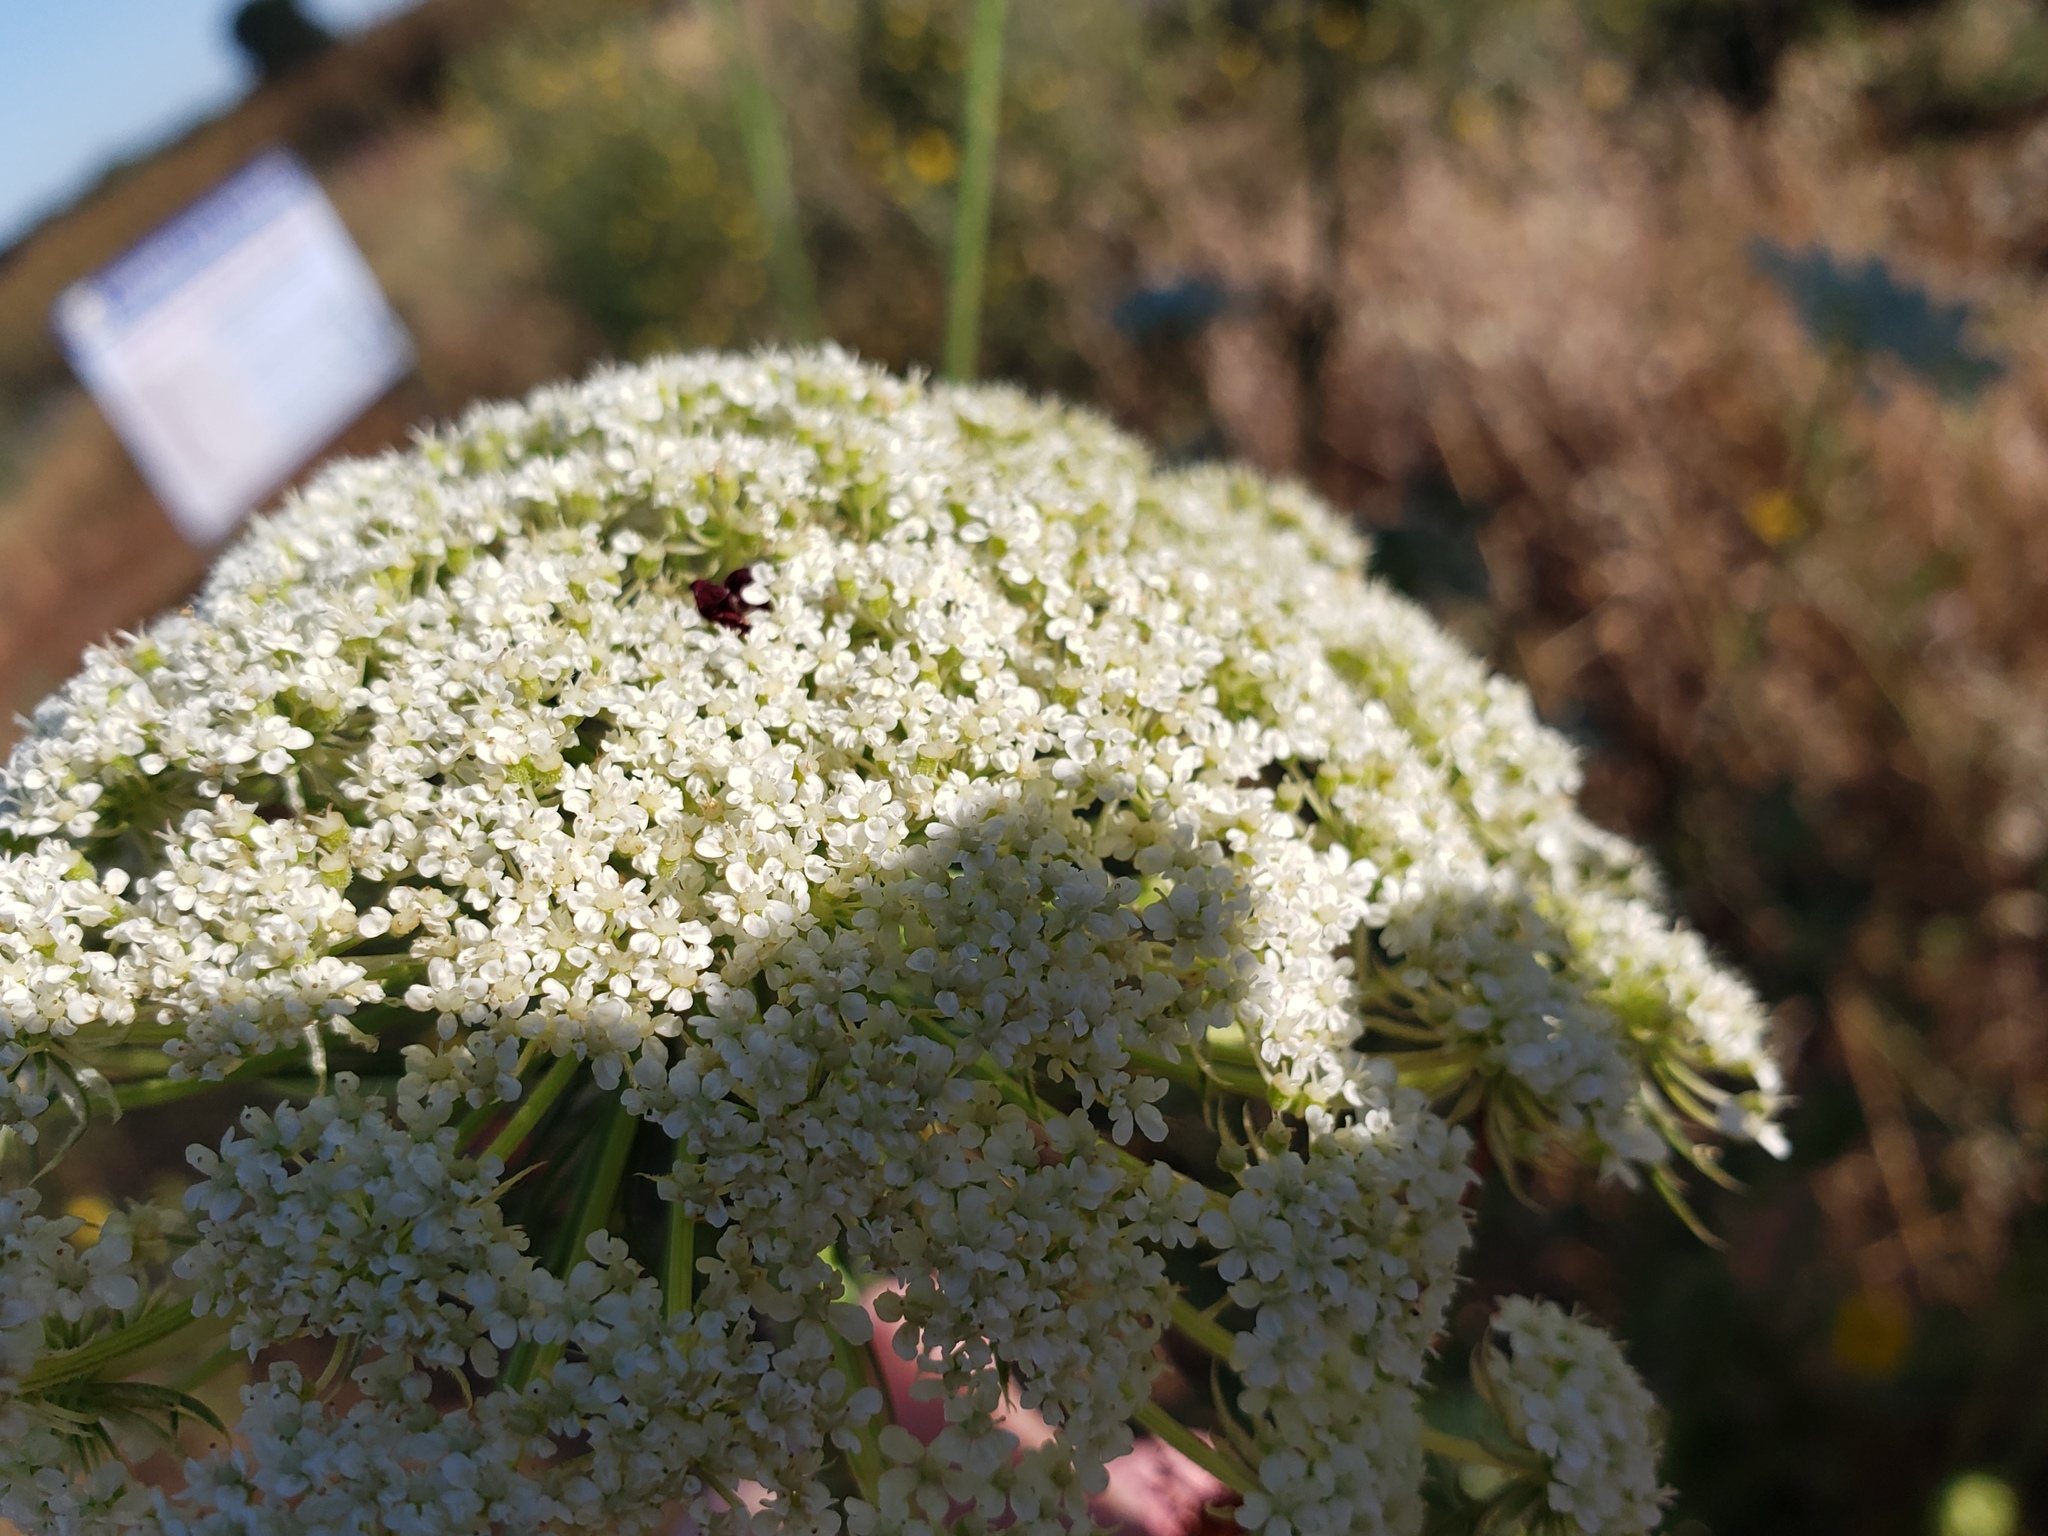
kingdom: Plantae
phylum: Tracheophyta
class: Magnoliopsida
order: Apiales
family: Apiaceae
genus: Daucus
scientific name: Daucus carota
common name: Wild carrot
